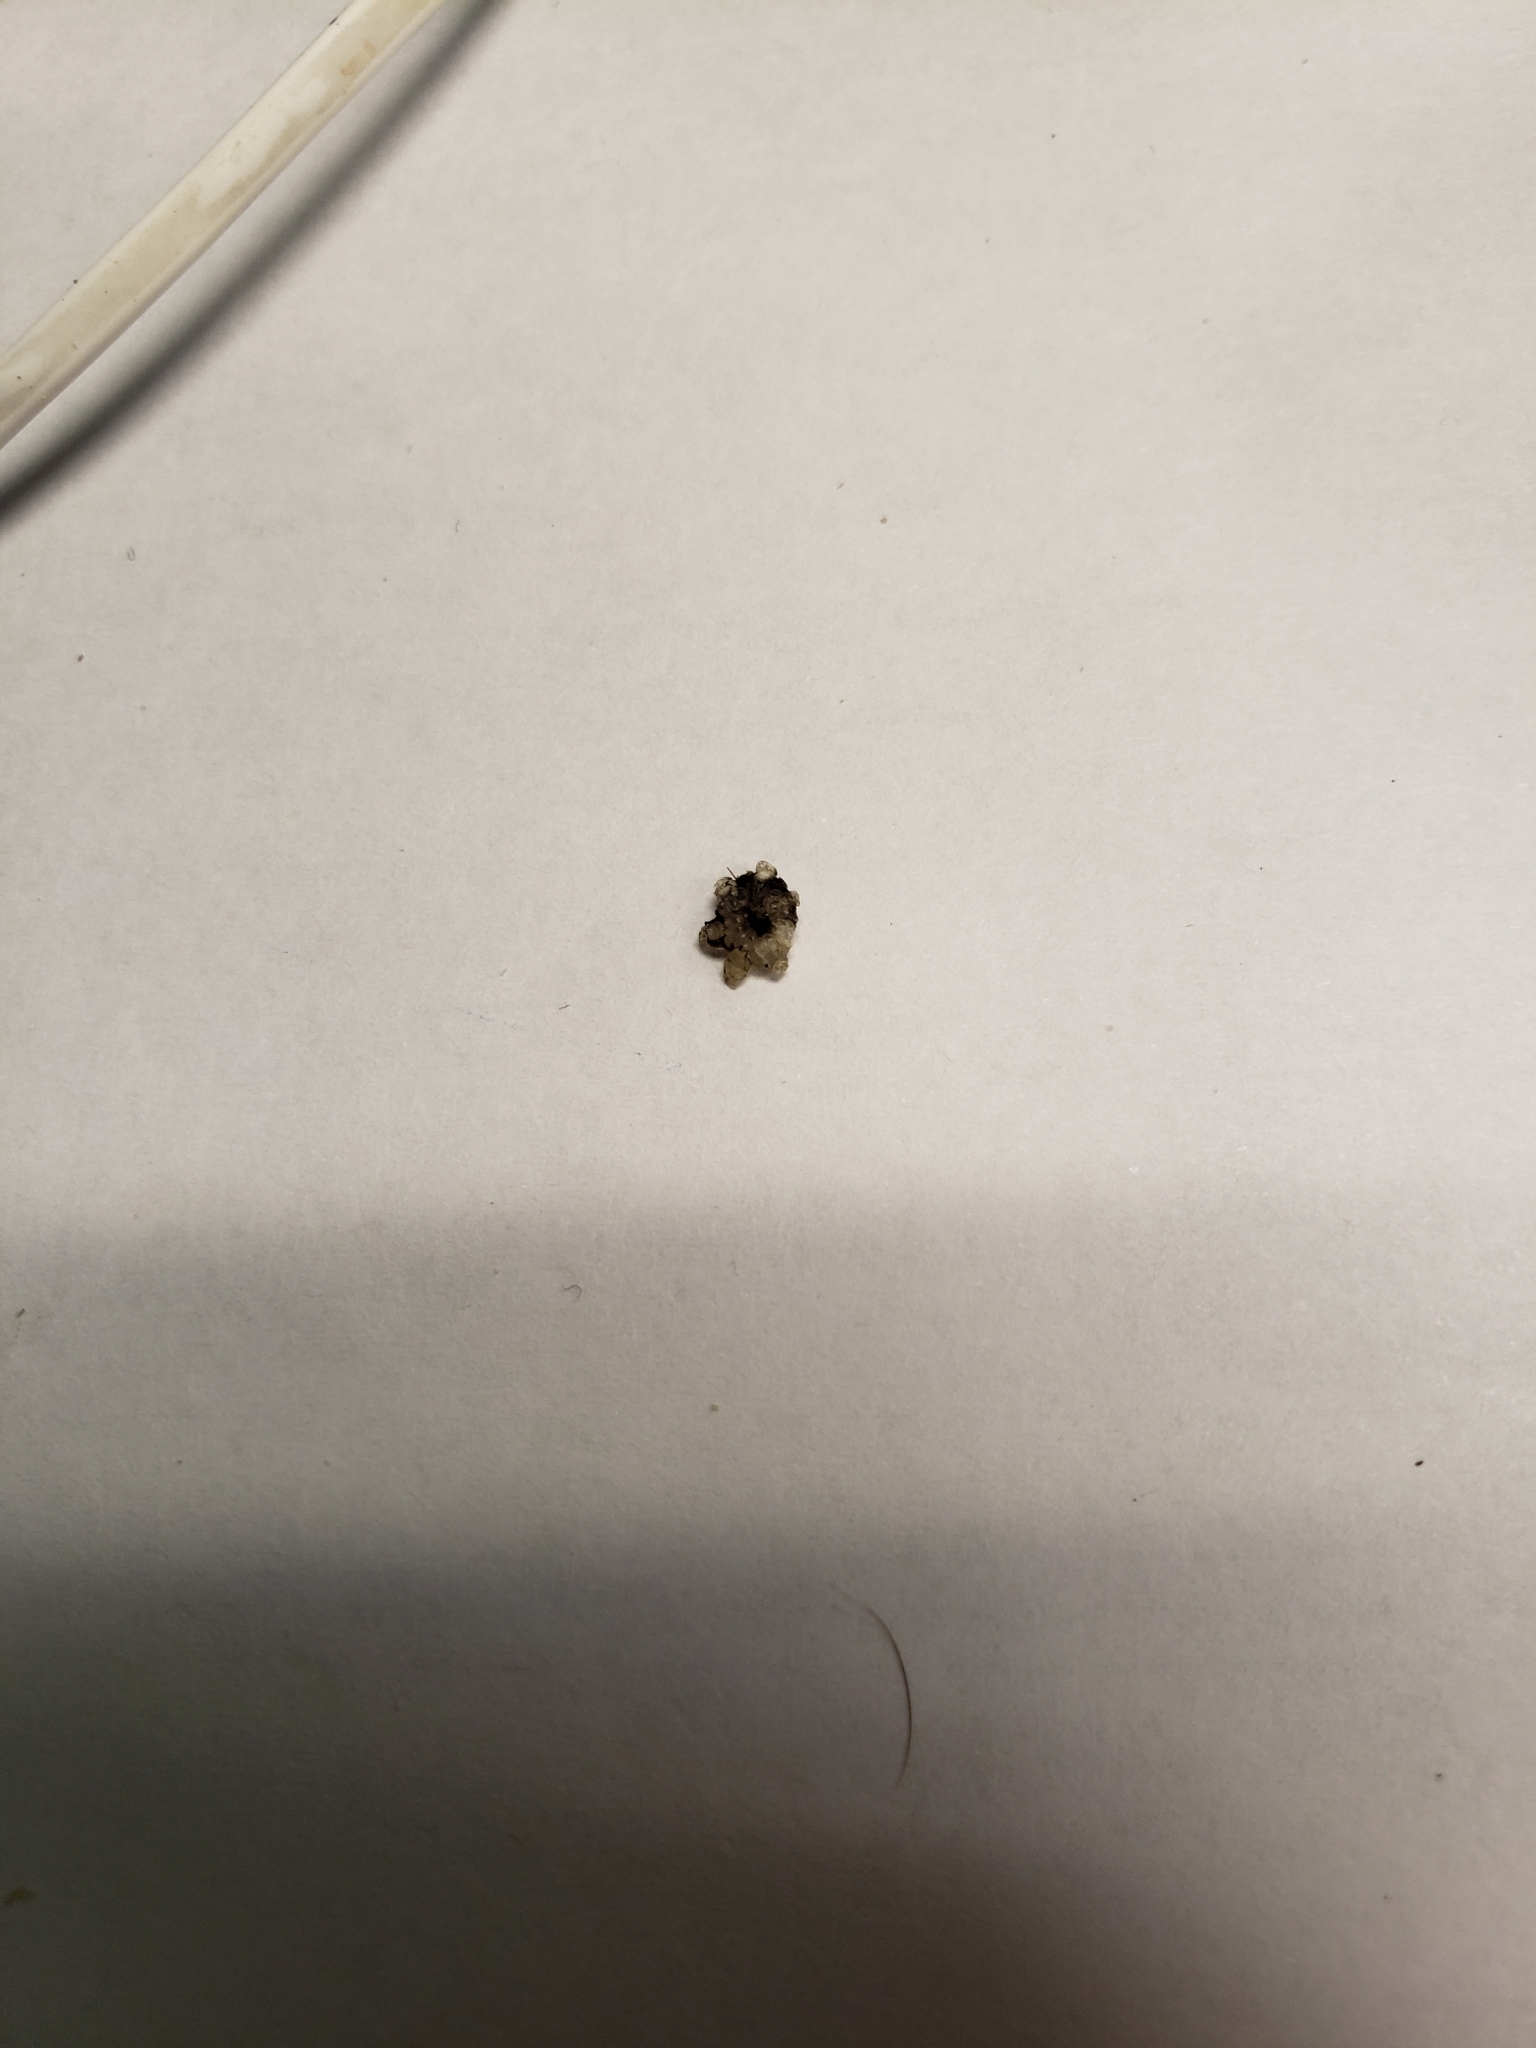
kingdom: Plantae
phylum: Charophyta
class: Charophyceae
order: Charales
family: Characeae
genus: Nitellopsis
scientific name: Nitellopsis obtusa
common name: Starry stonewort
